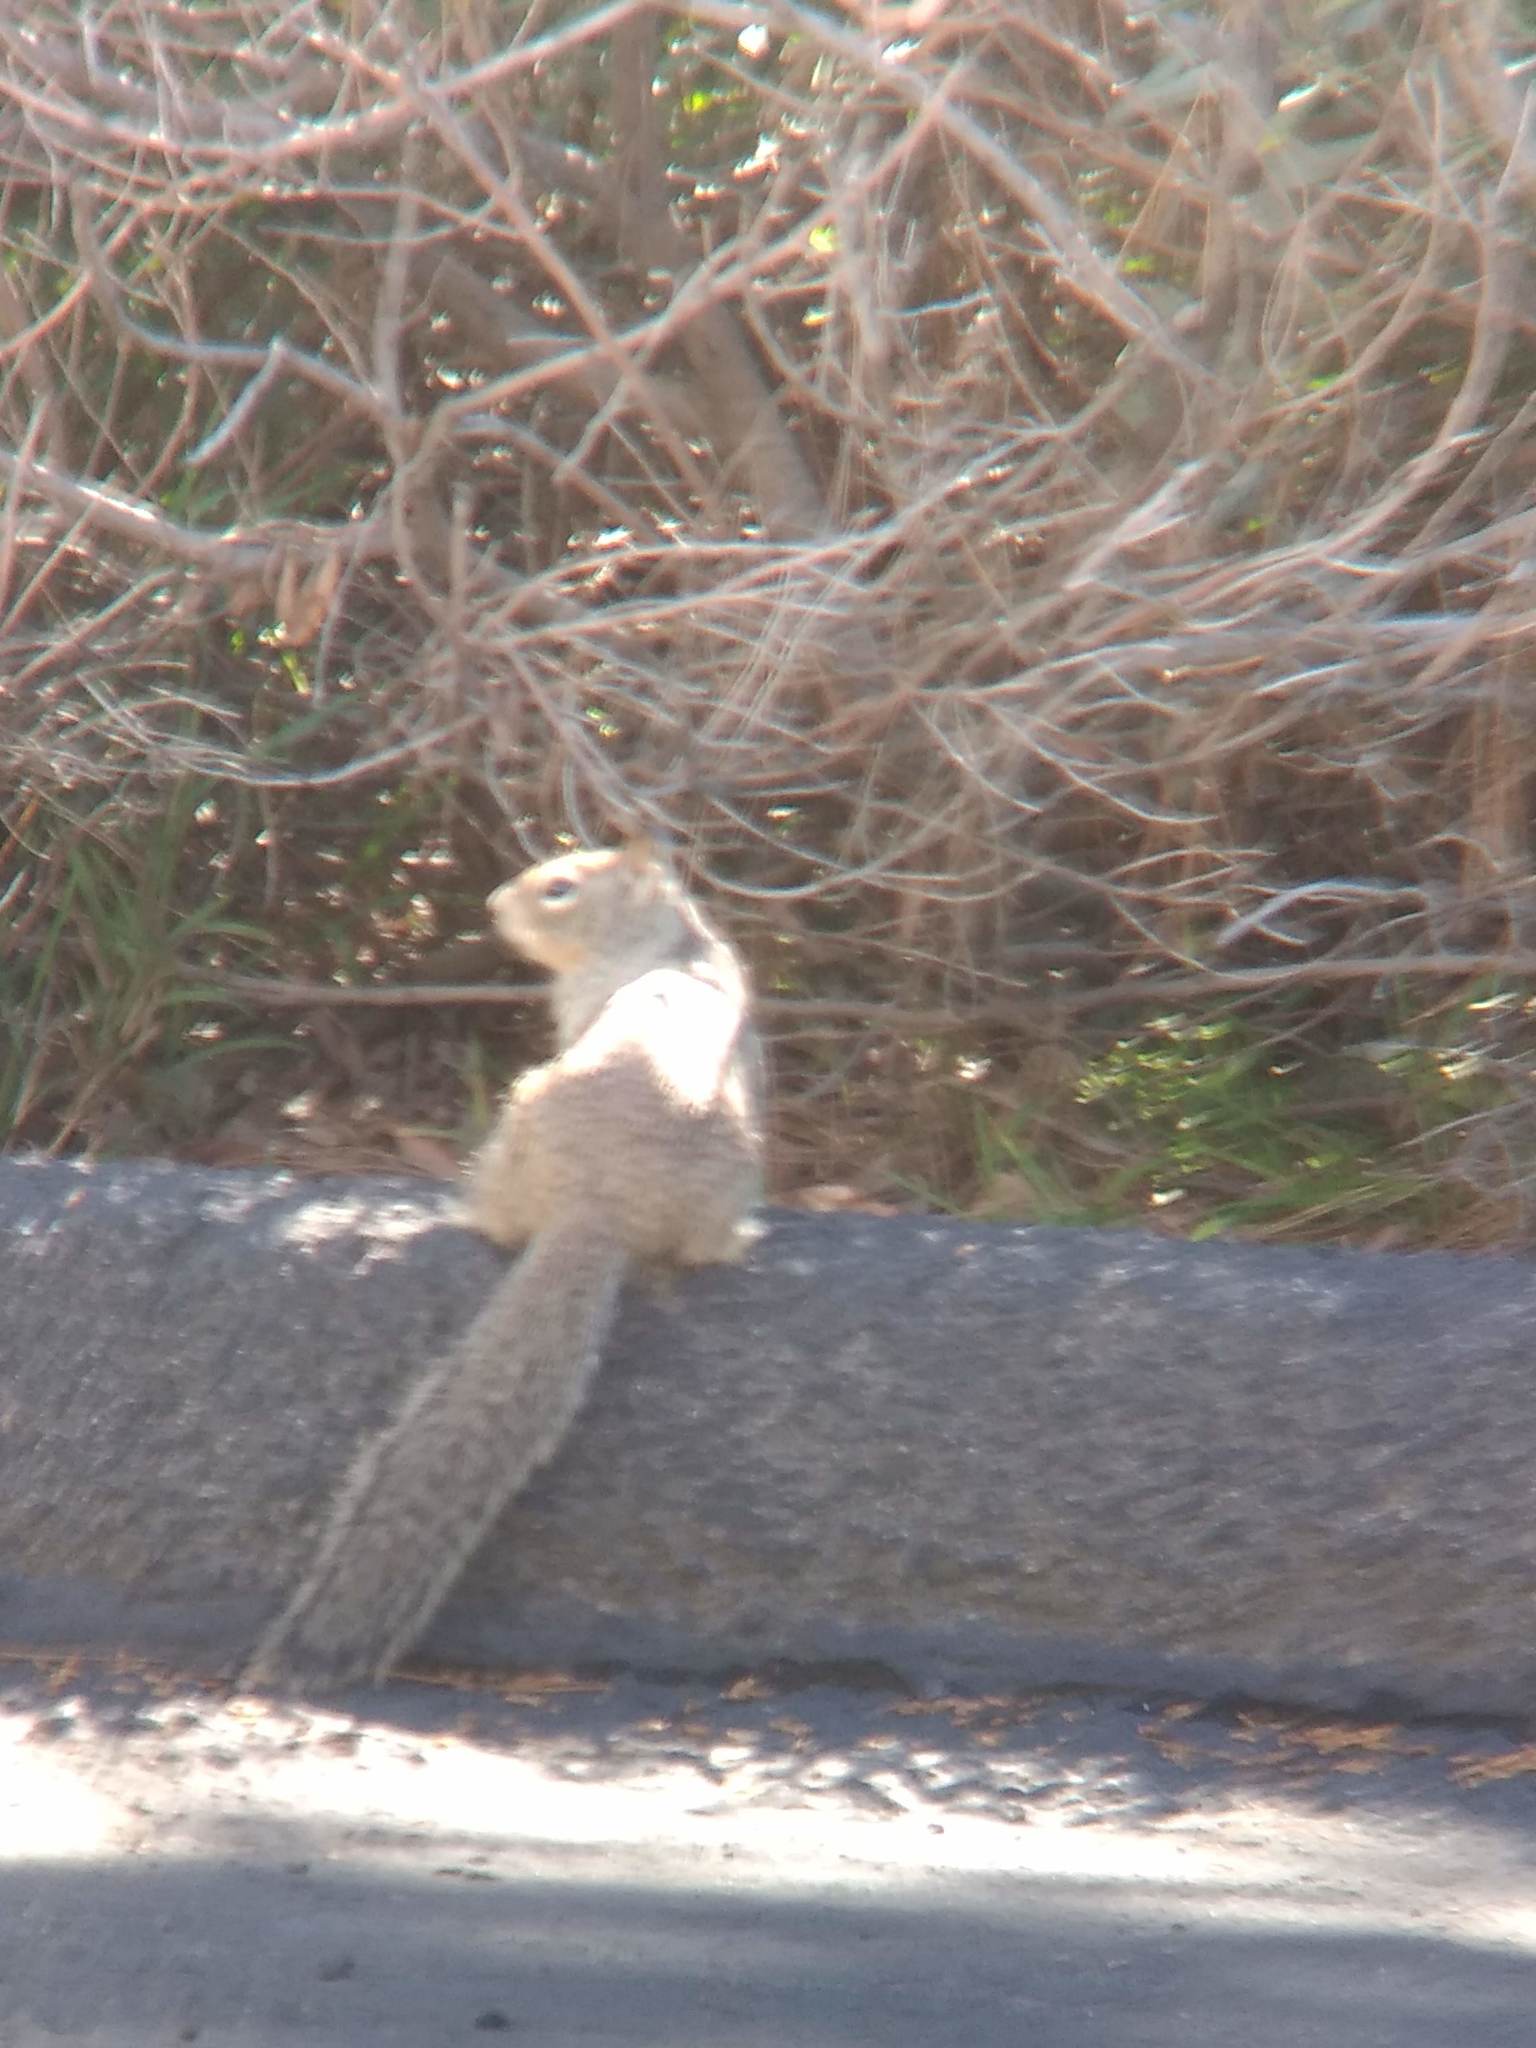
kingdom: Animalia
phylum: Chordata
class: Mammalia
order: Rodentia
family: Sciuridae
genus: Otospermophilus
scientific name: Otospermophilus beecheyi
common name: California ground squirrel
